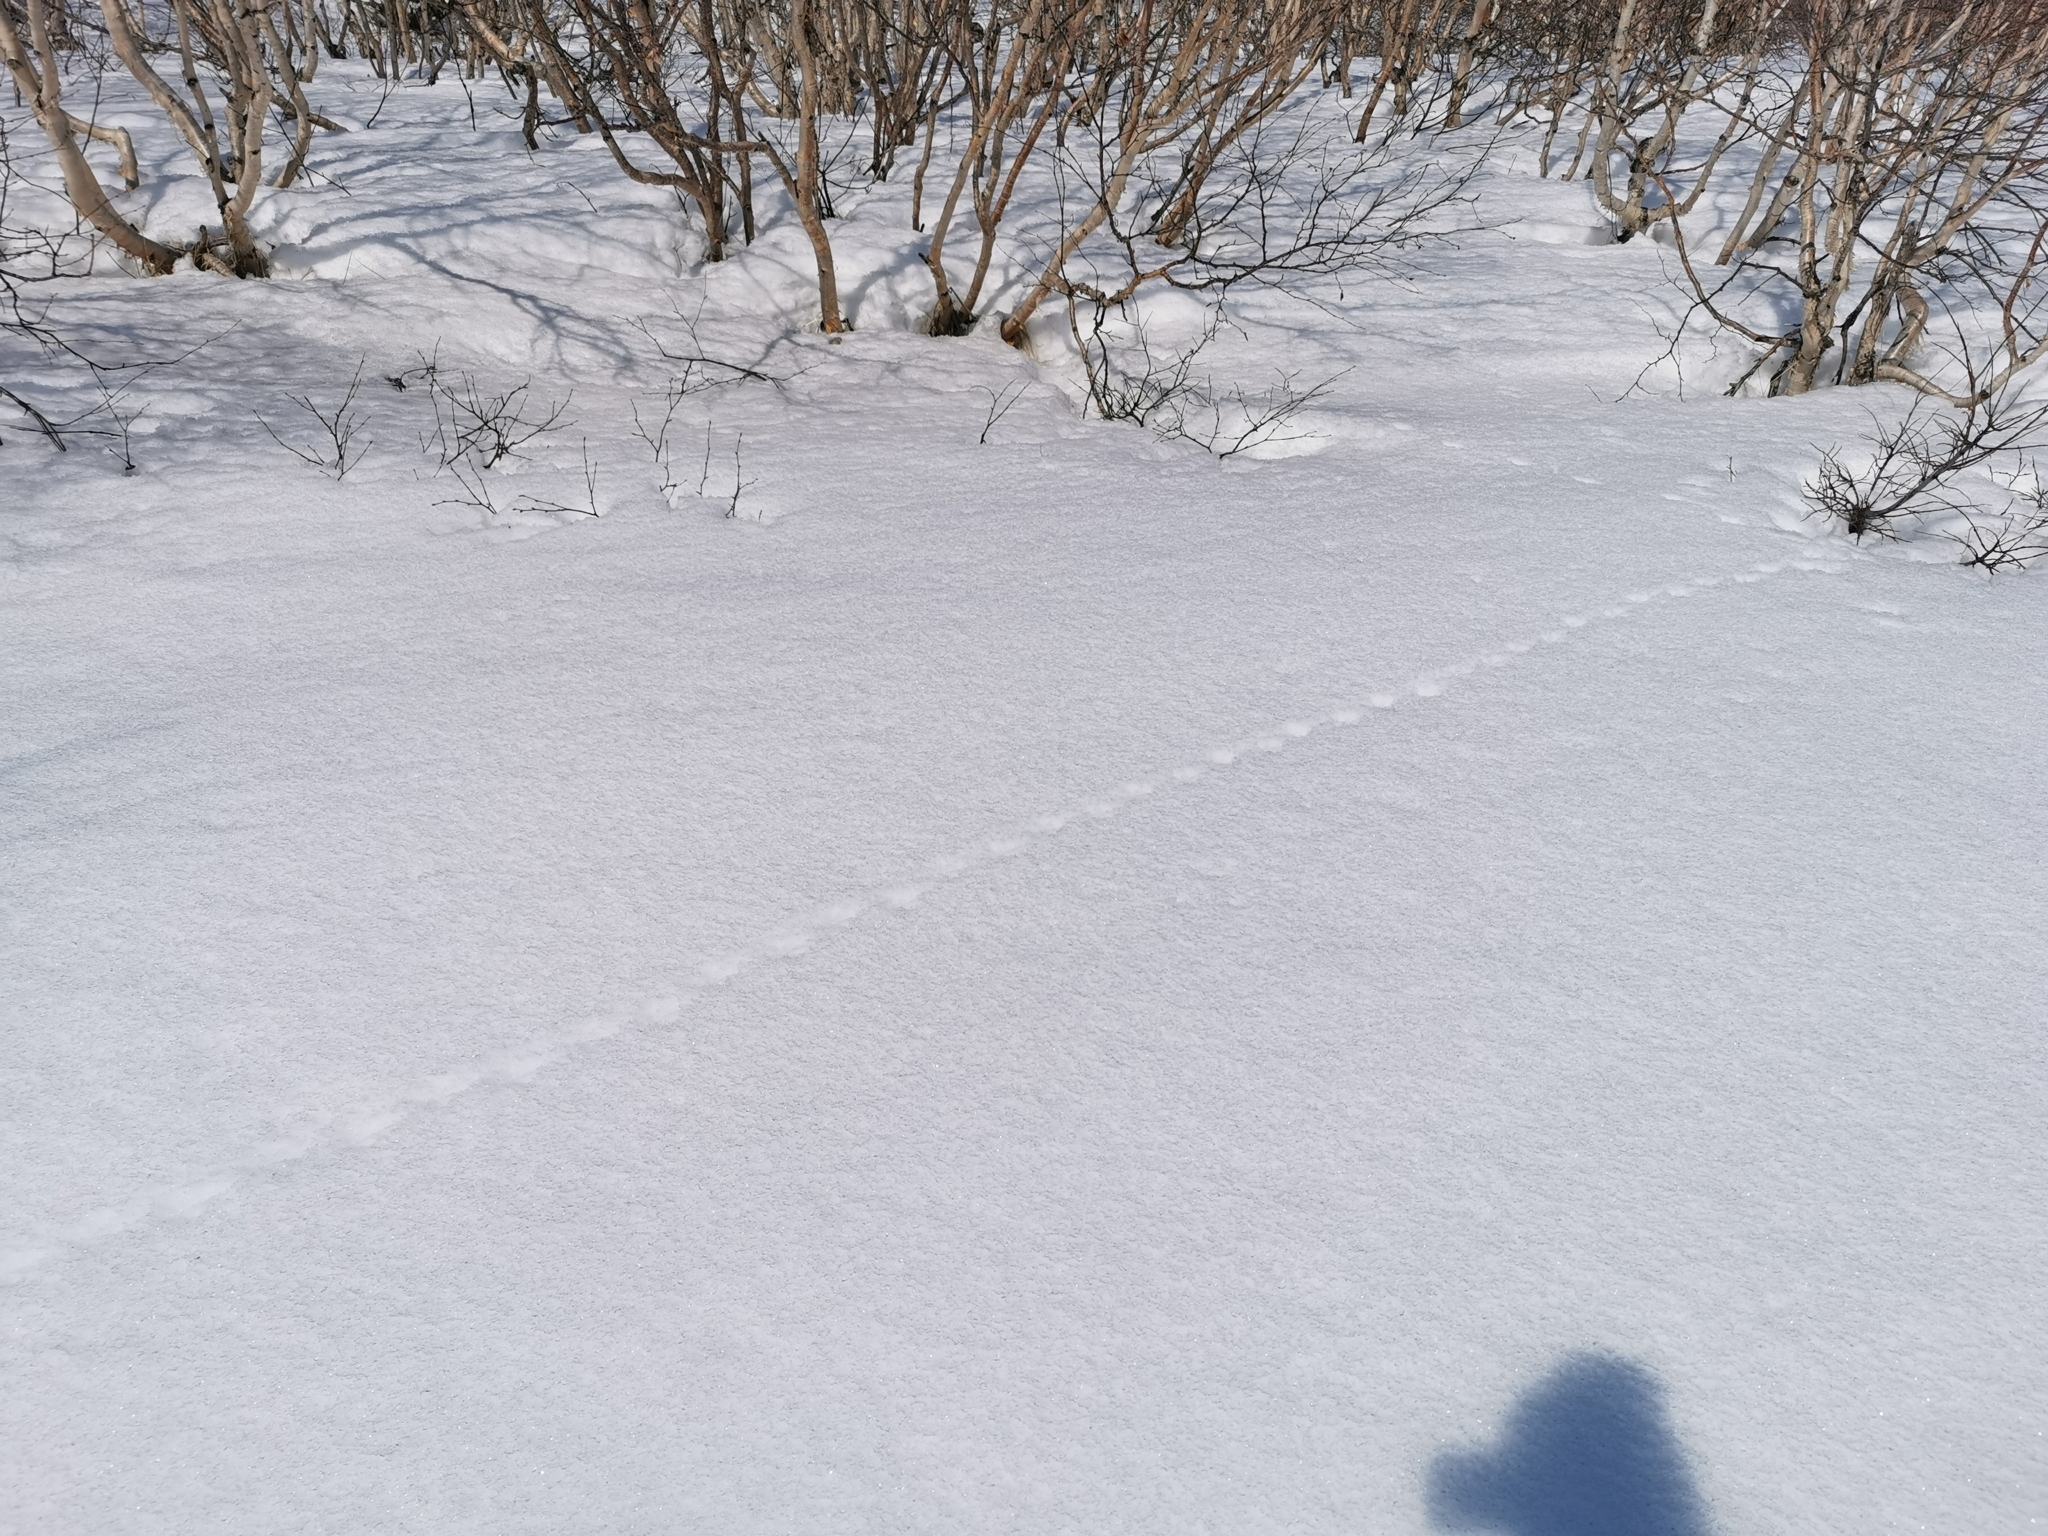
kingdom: Animalia
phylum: Chordata
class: Aves
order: Galliformes
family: Phasianidae
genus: Lagopus
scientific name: Lagopus lagopus
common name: Willow ptarmigan
